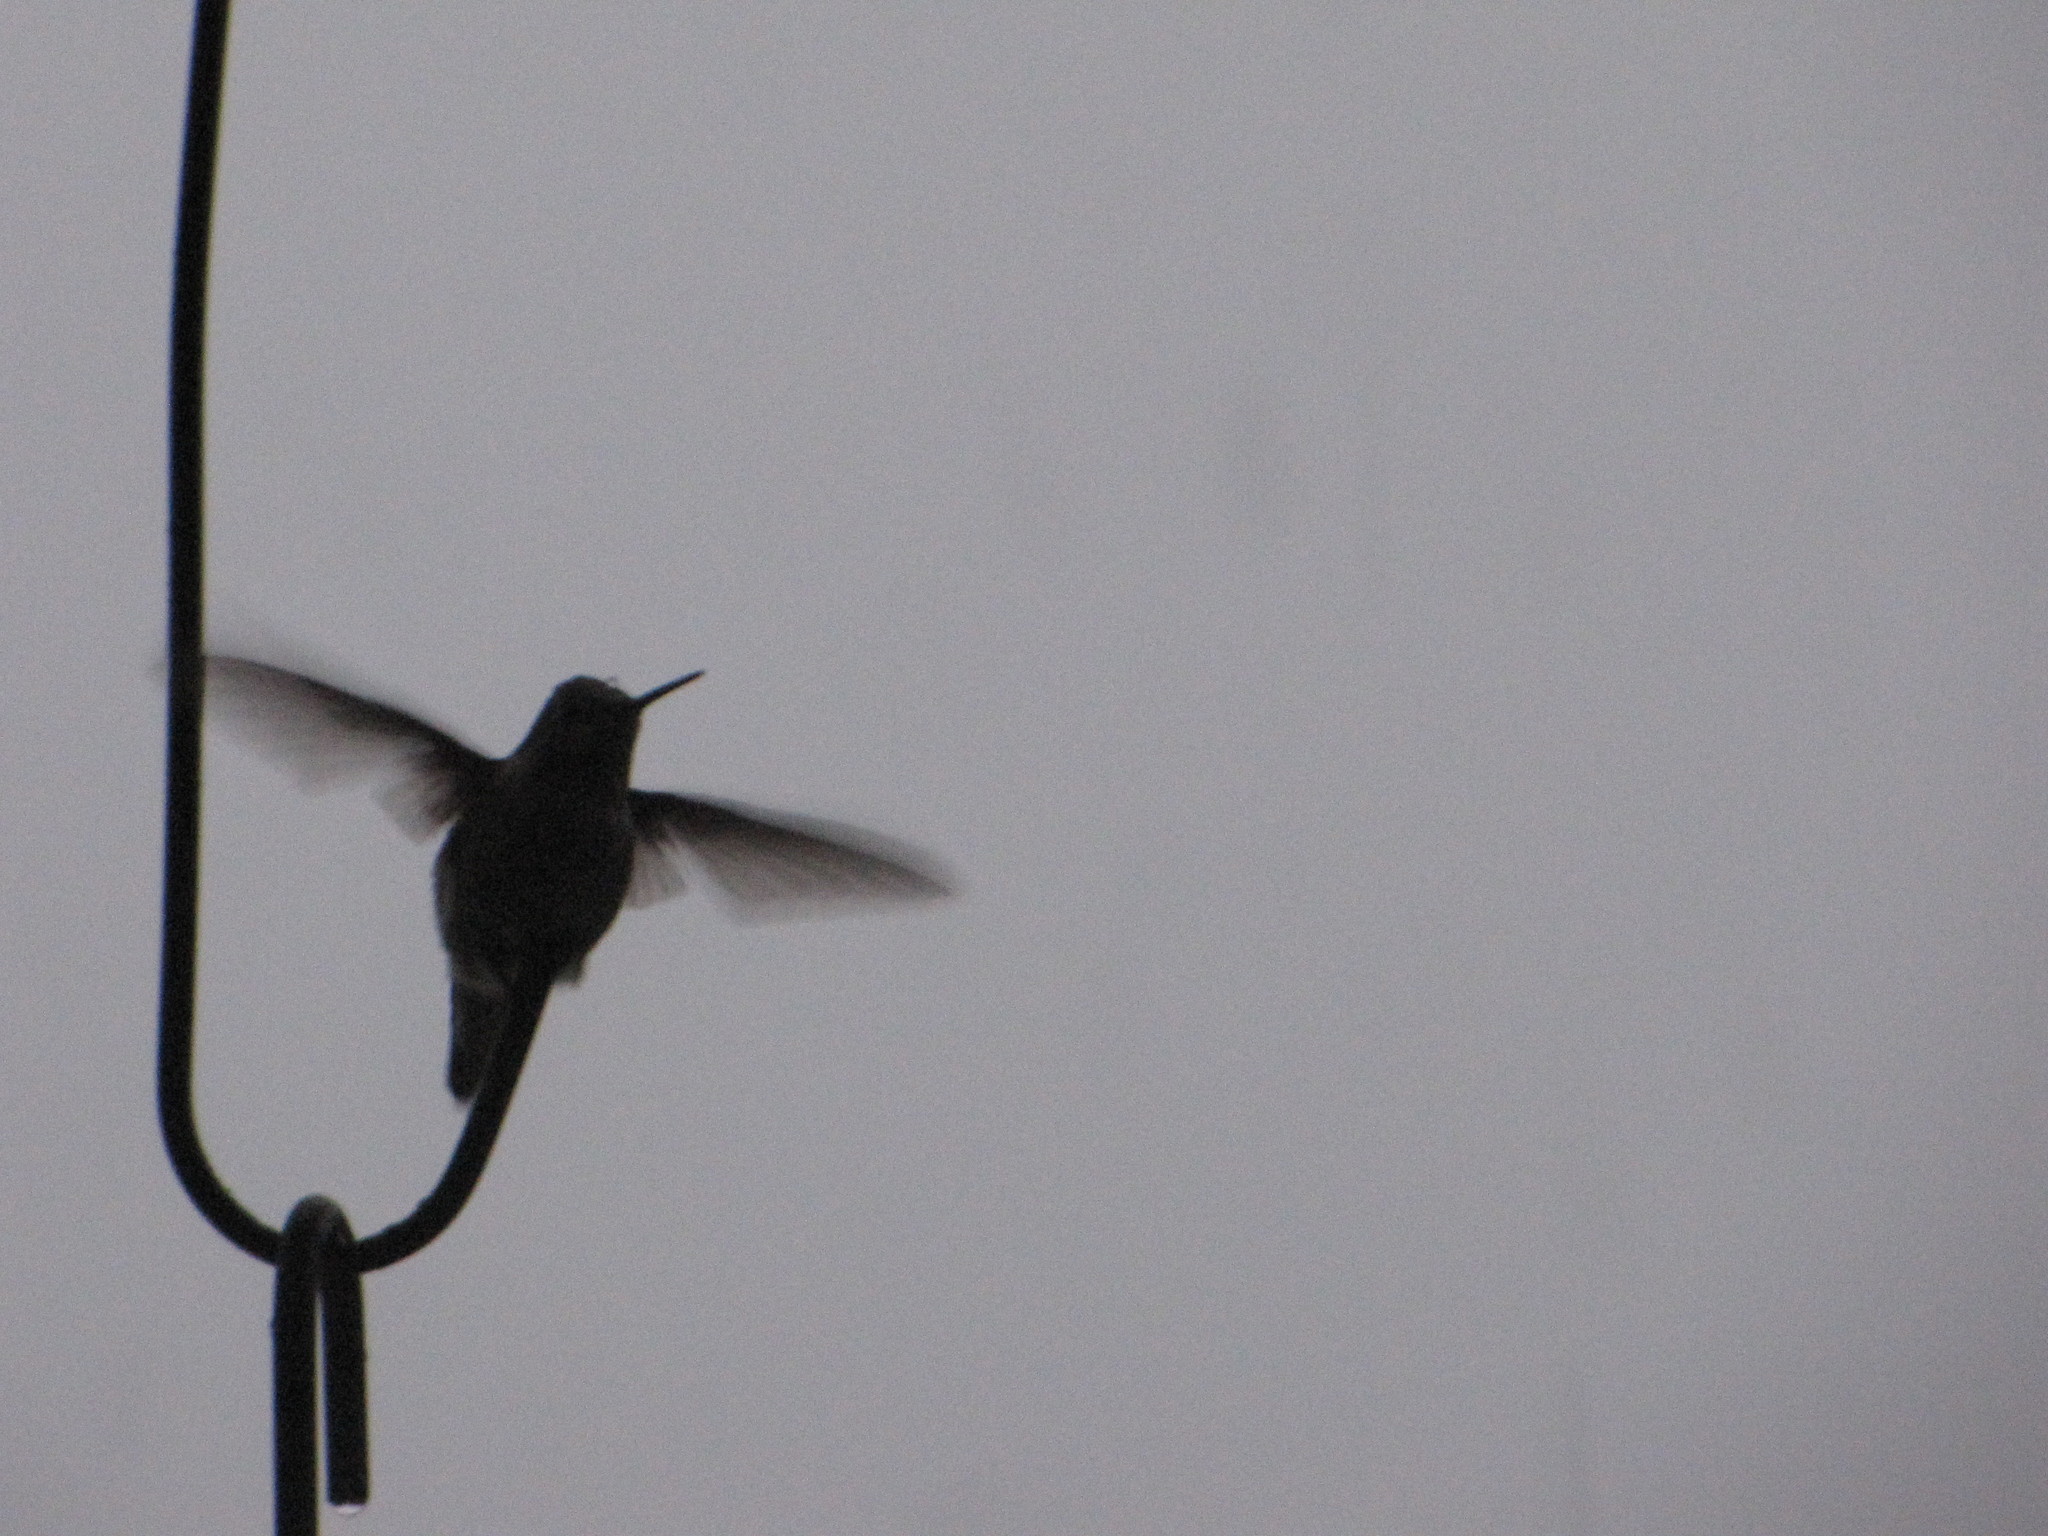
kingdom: Animalia
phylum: Chordata
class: Aves
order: Apodiformes
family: Trochilidae
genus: Calypte
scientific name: Calypte anna
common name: Anna's hummingbird
